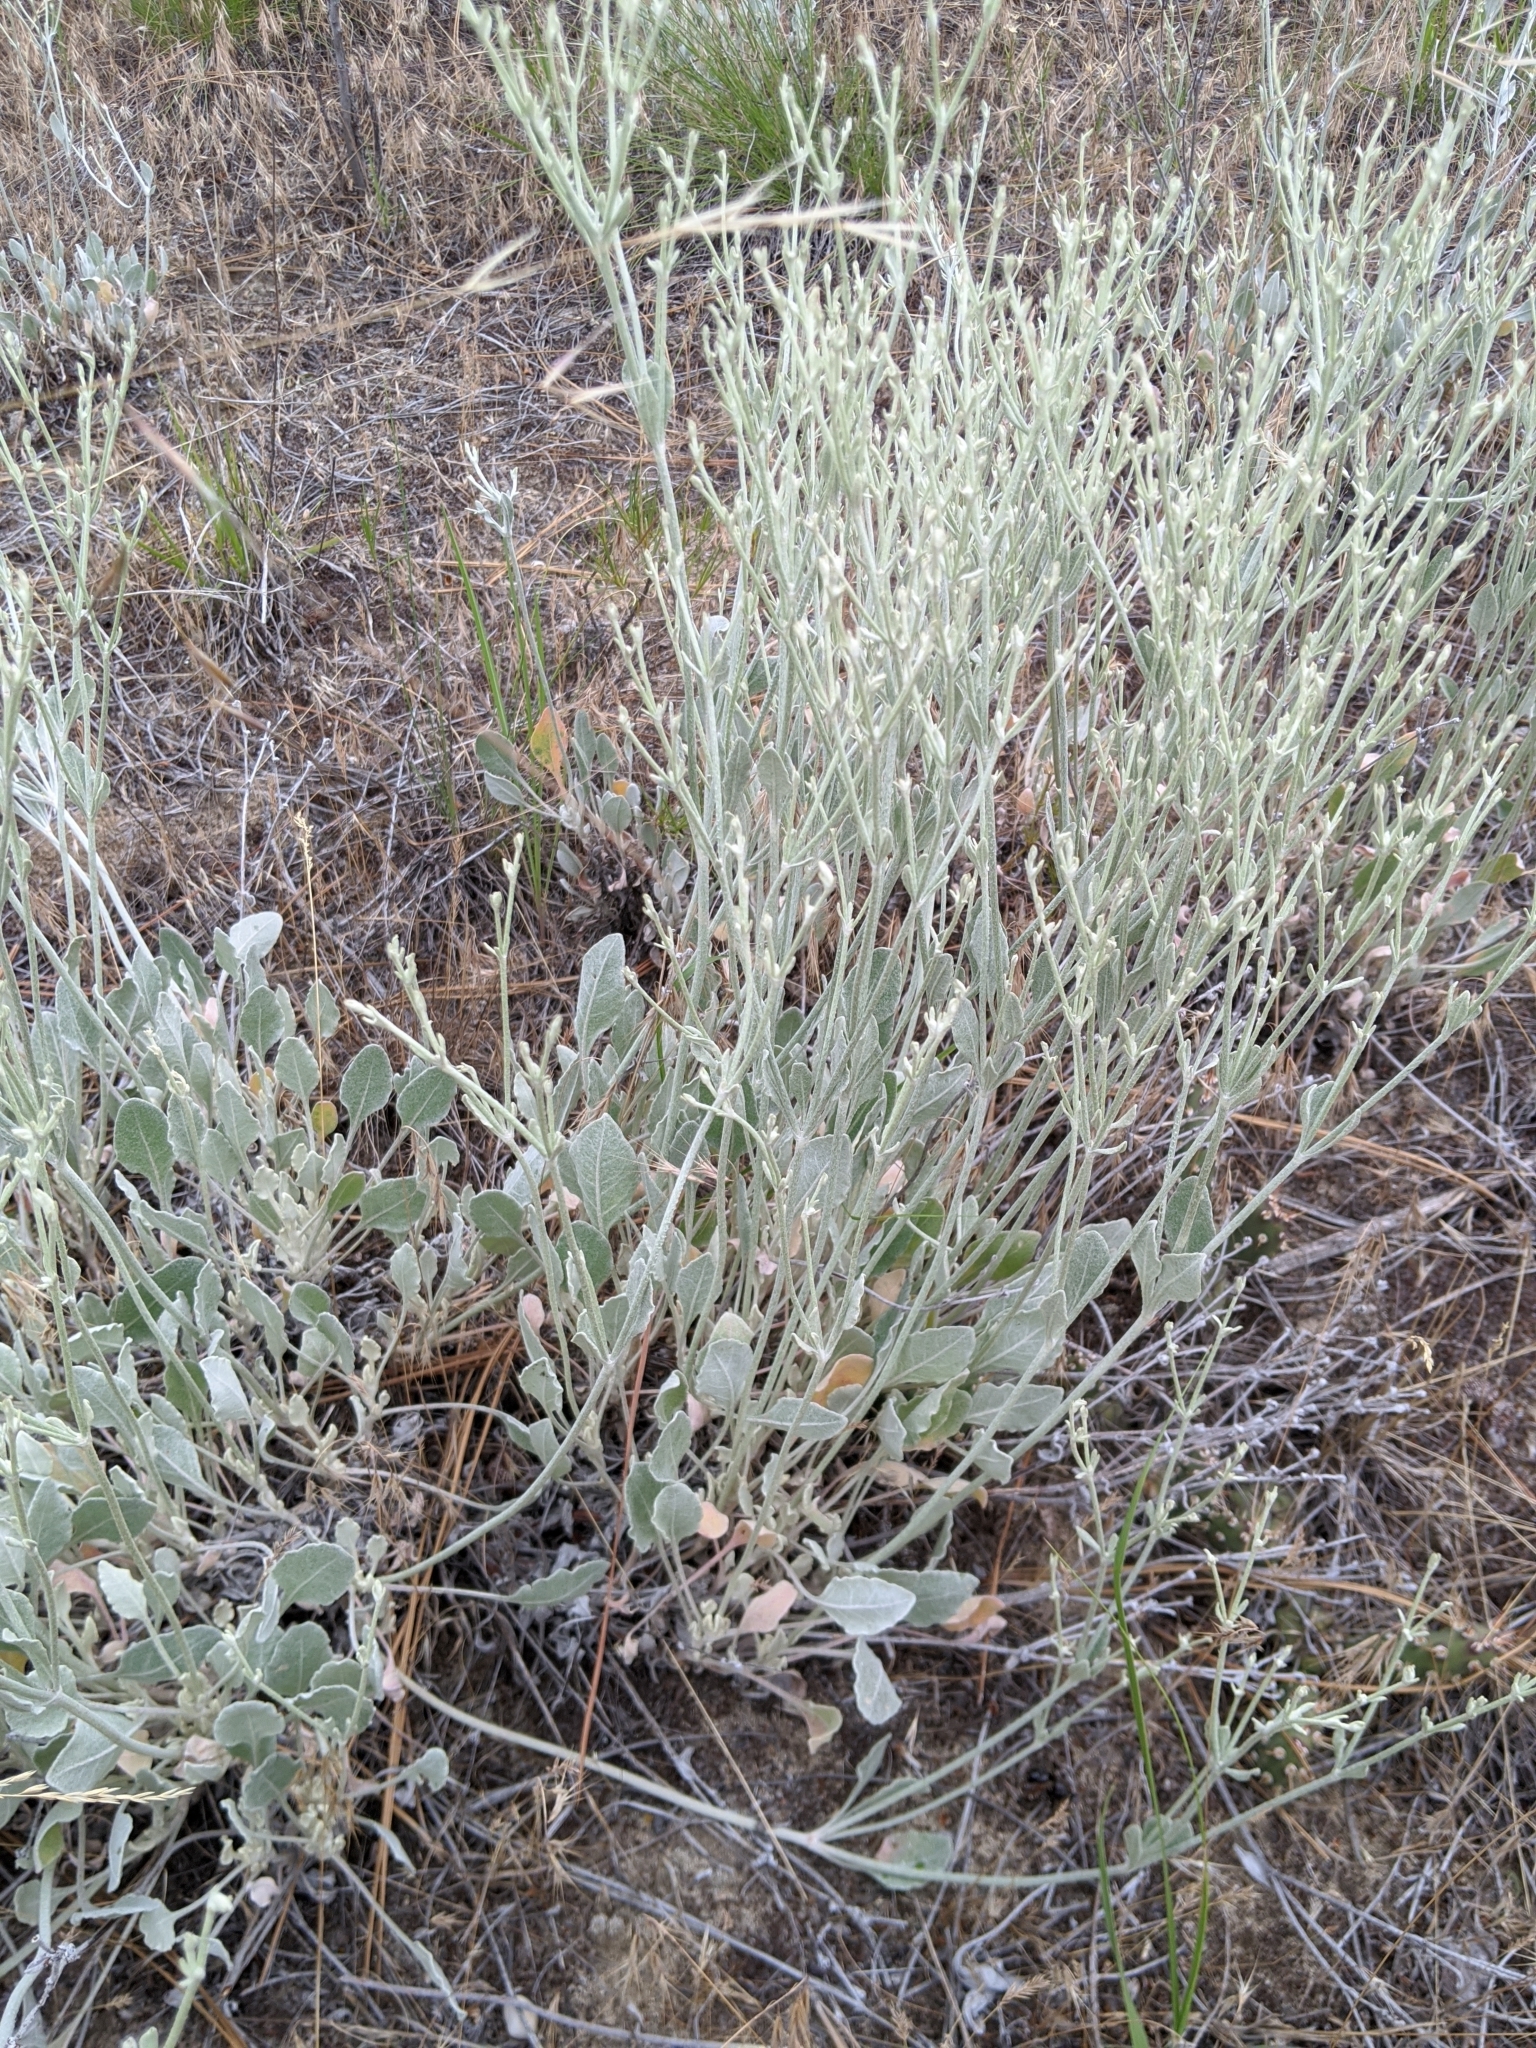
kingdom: Plantae
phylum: Tracheophyta
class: Magnoliopsida
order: Caryophyllales
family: Polygonaceae
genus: Eriogonum
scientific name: Eriogonum niveum
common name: Snow wild buckwheat
